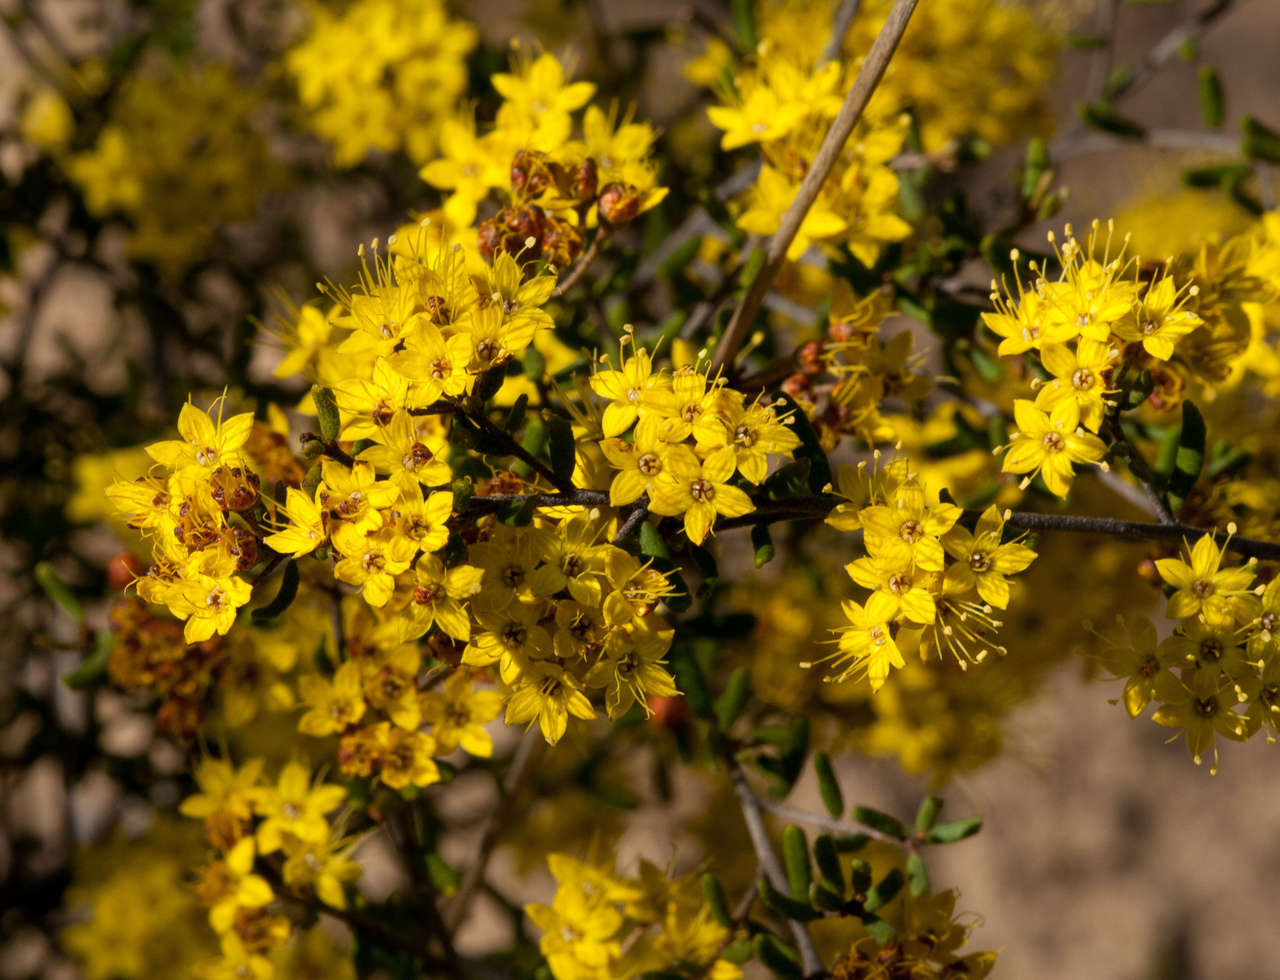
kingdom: Plantae
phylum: Tracheophyta
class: Magnoliopsida
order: Sapindales
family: Rutaceae
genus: Phebalium
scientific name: Phebalium stenophyllum
